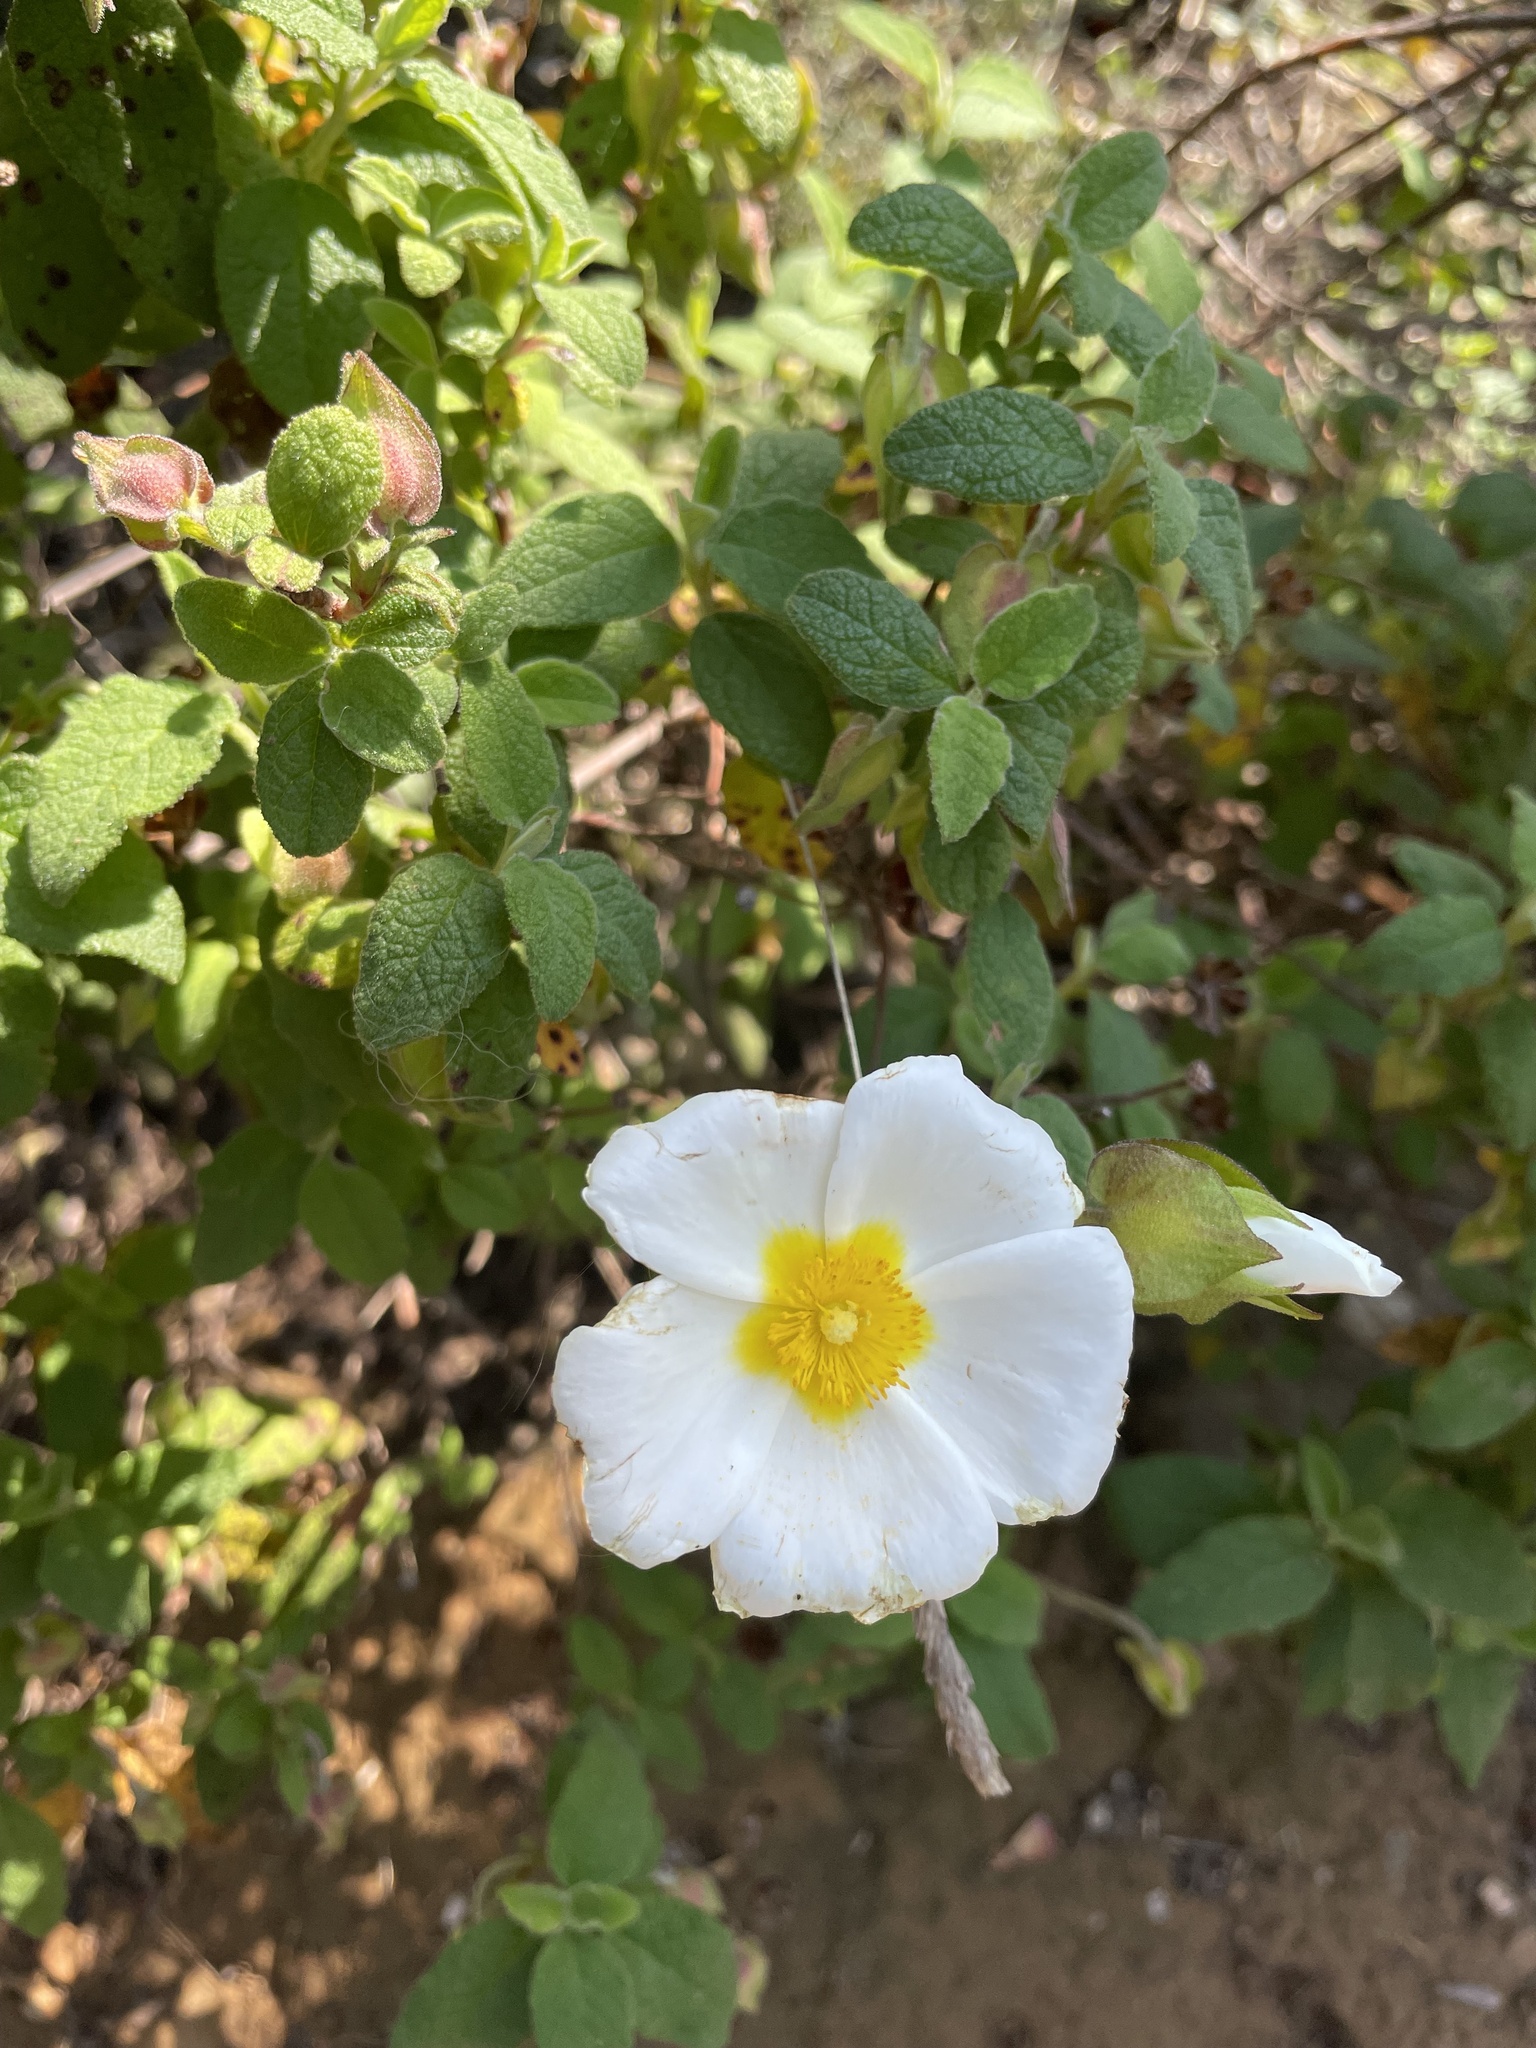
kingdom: Plantae
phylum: Tracheophyta
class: Magnoliopsida
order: Malvales
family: Cistaceae
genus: Cistus
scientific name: Cistus salviifolius
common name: Salvia cistus
